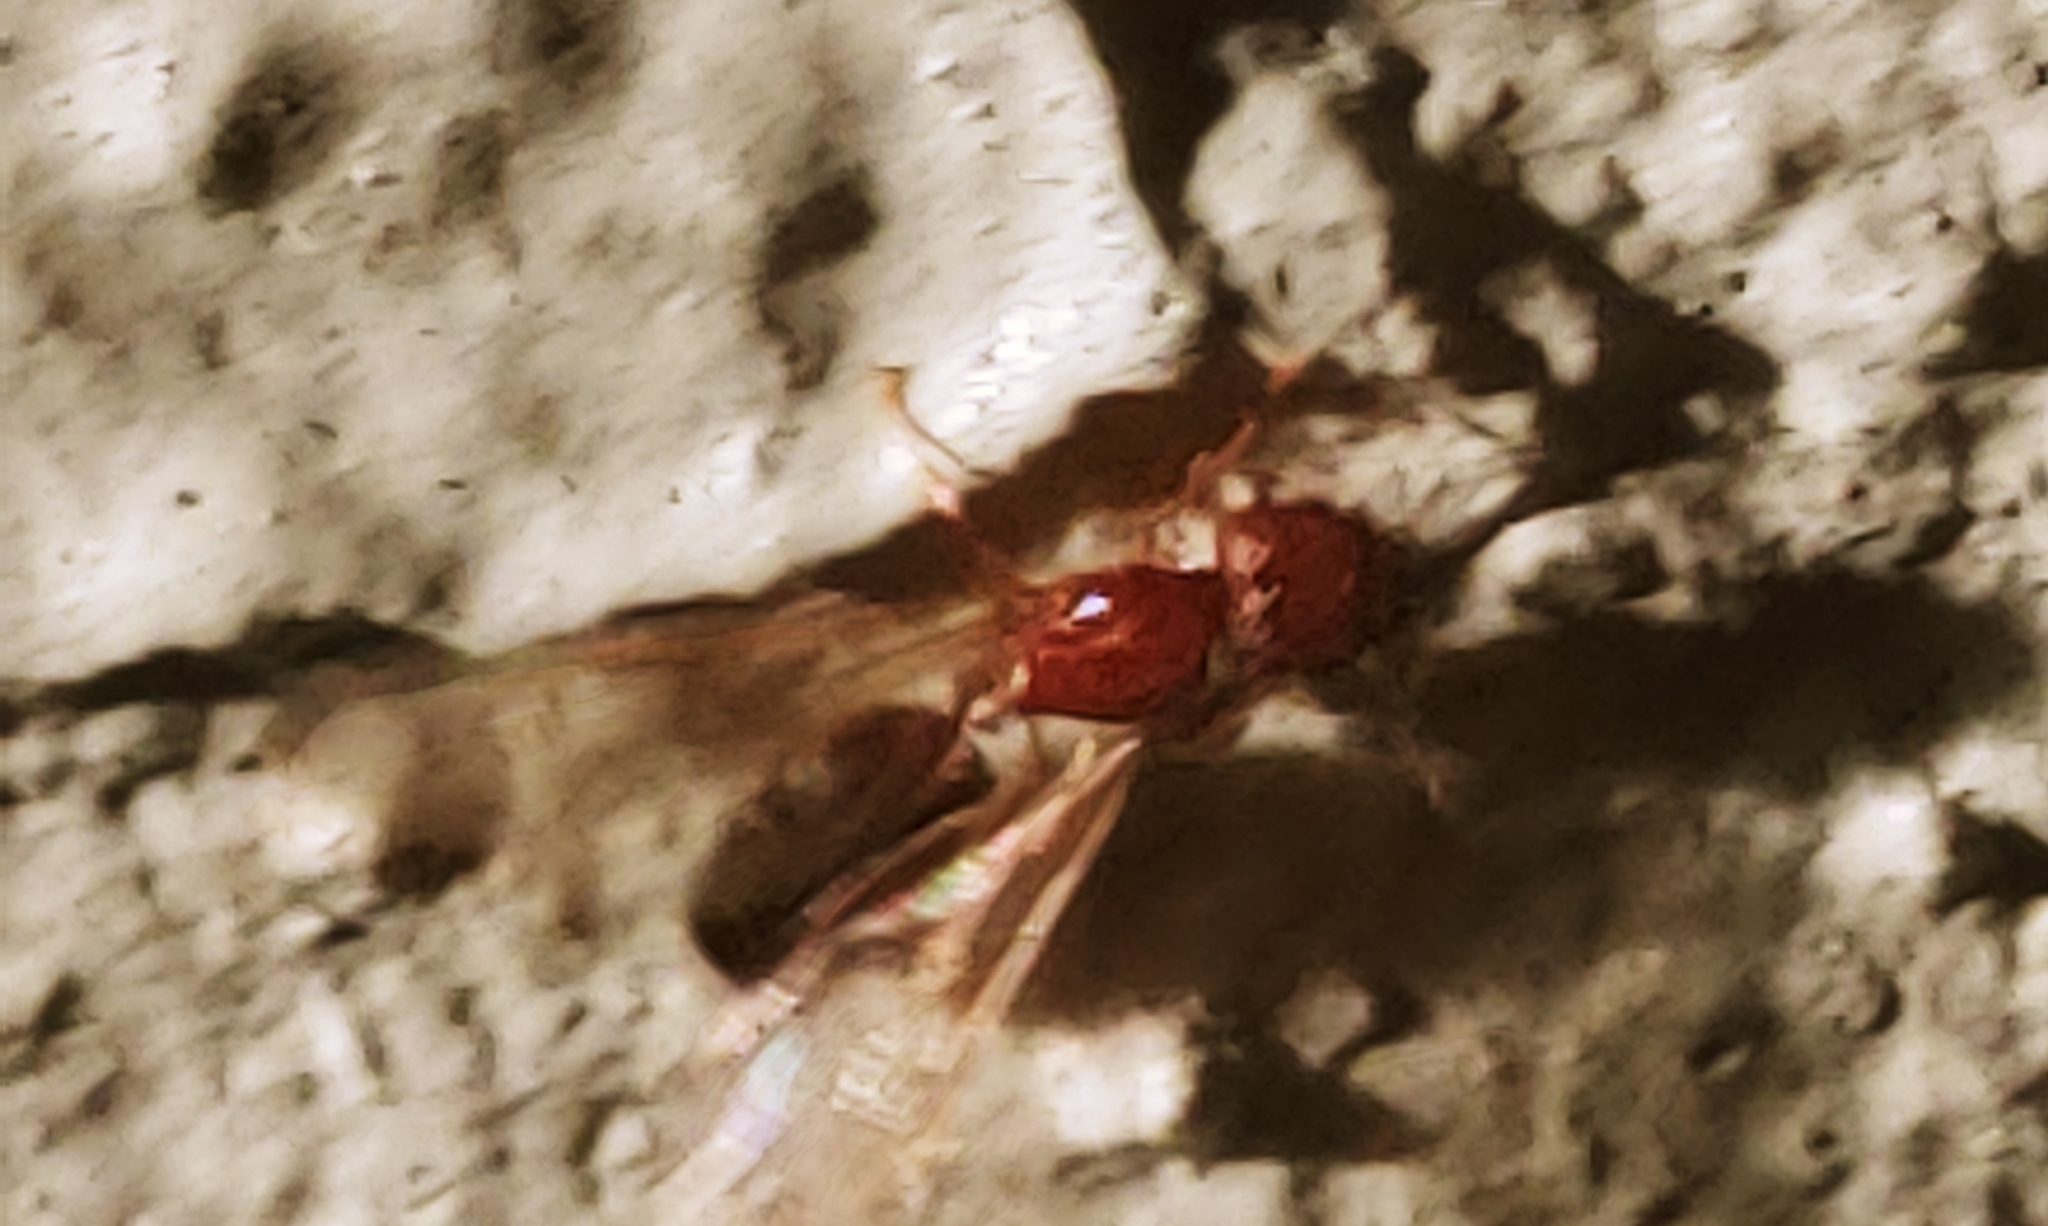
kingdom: Animalia
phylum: Arthropoda
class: Insecta
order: Hymenoptera
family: Formicidae
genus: Pheidole
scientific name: Pheidole parva
